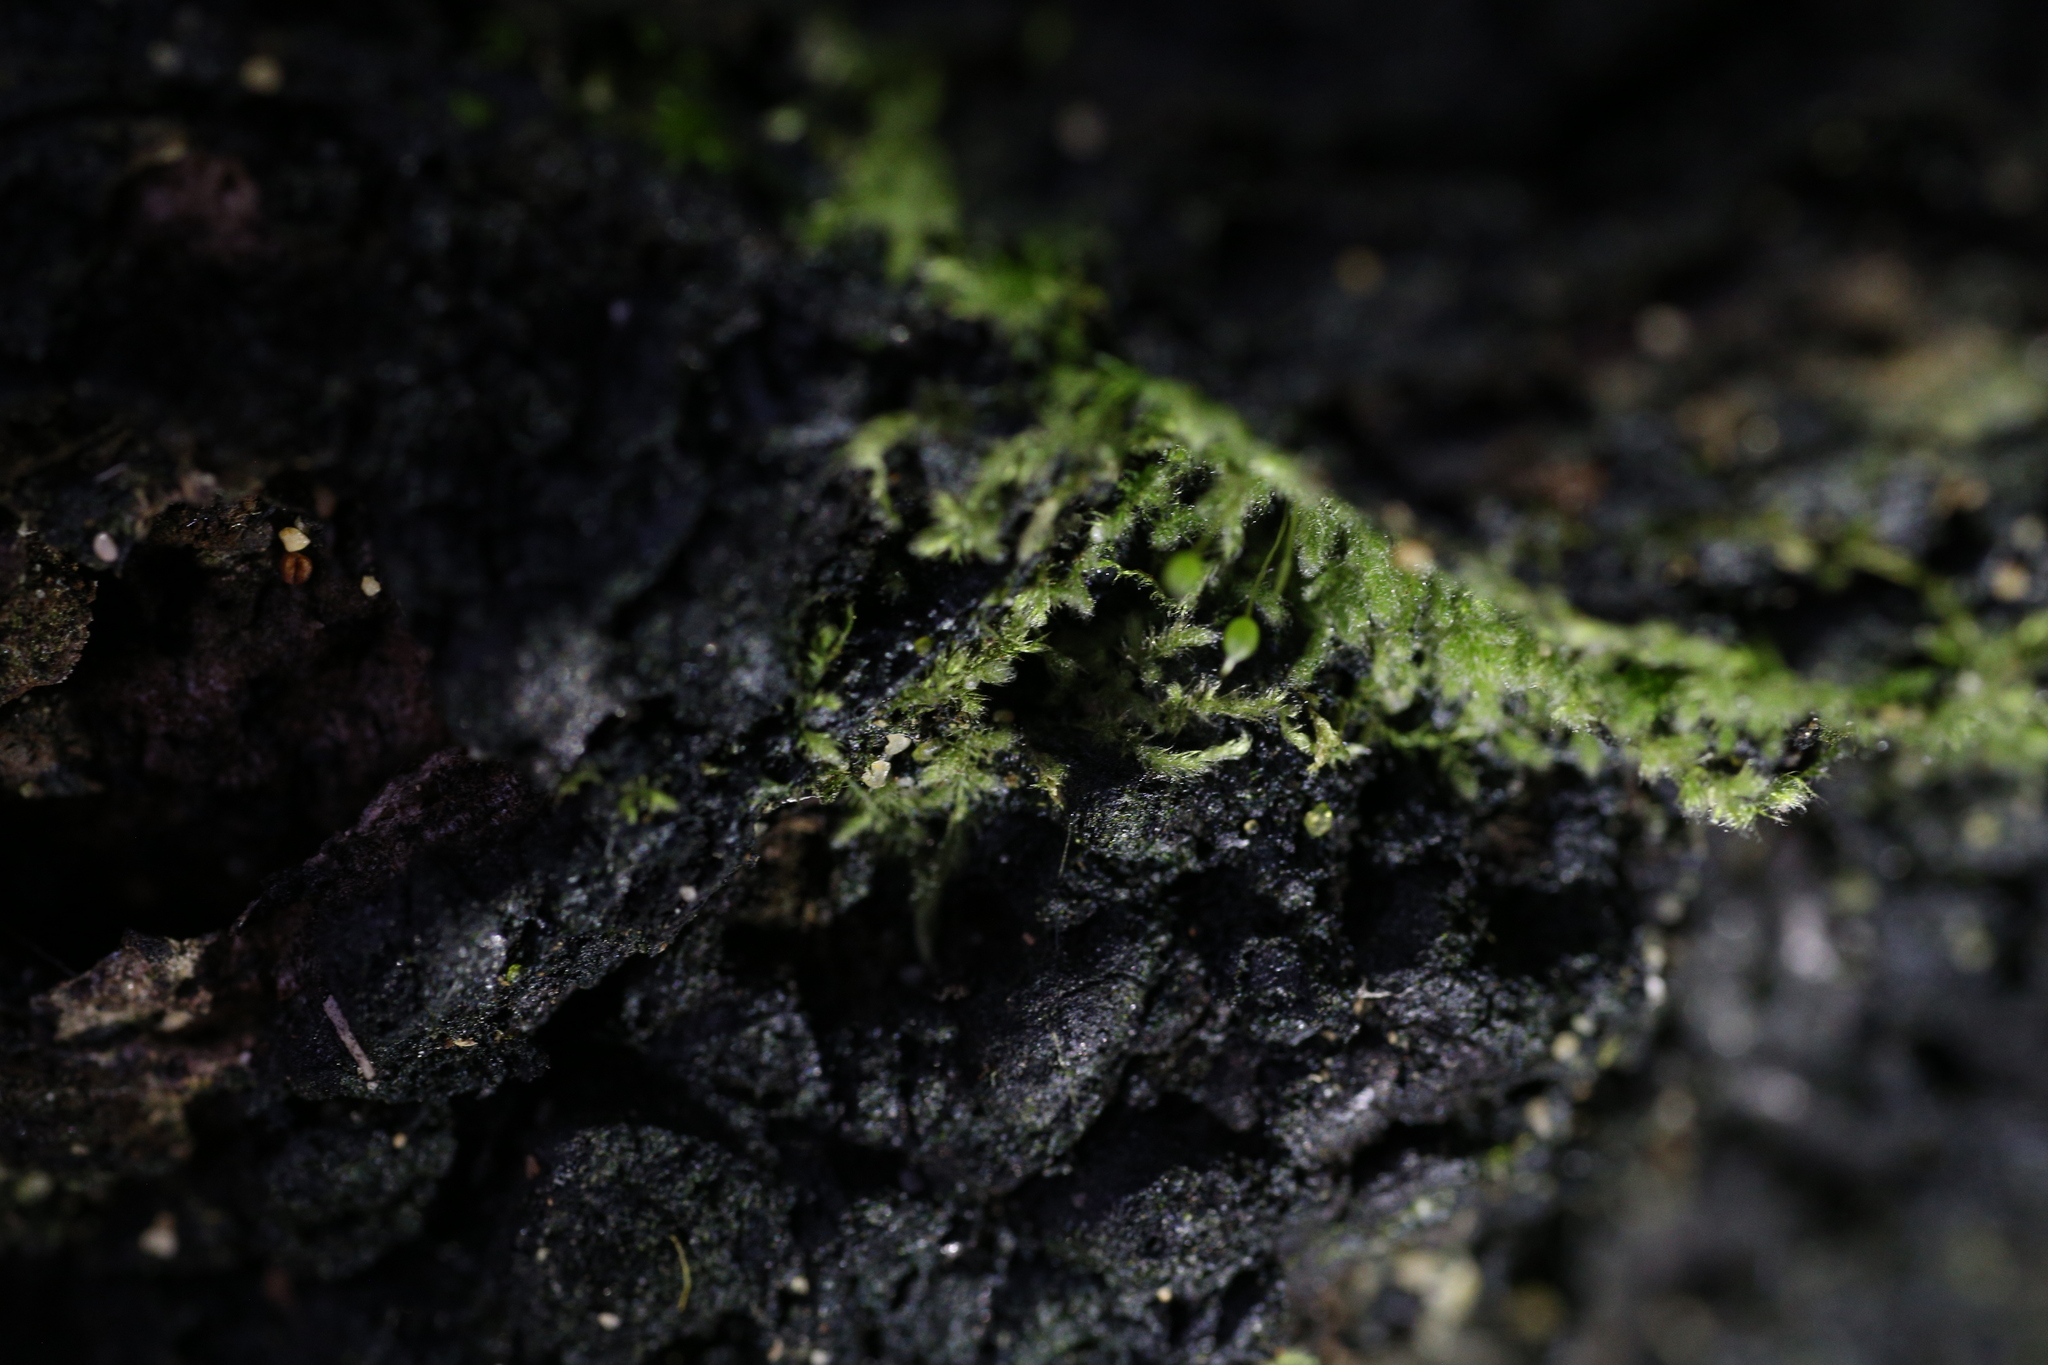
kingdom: Plantae
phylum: Bryophyta
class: Bryopsida
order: Hypnales
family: Fabroniaceae
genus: Fabronia
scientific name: Fabronia hampeana
